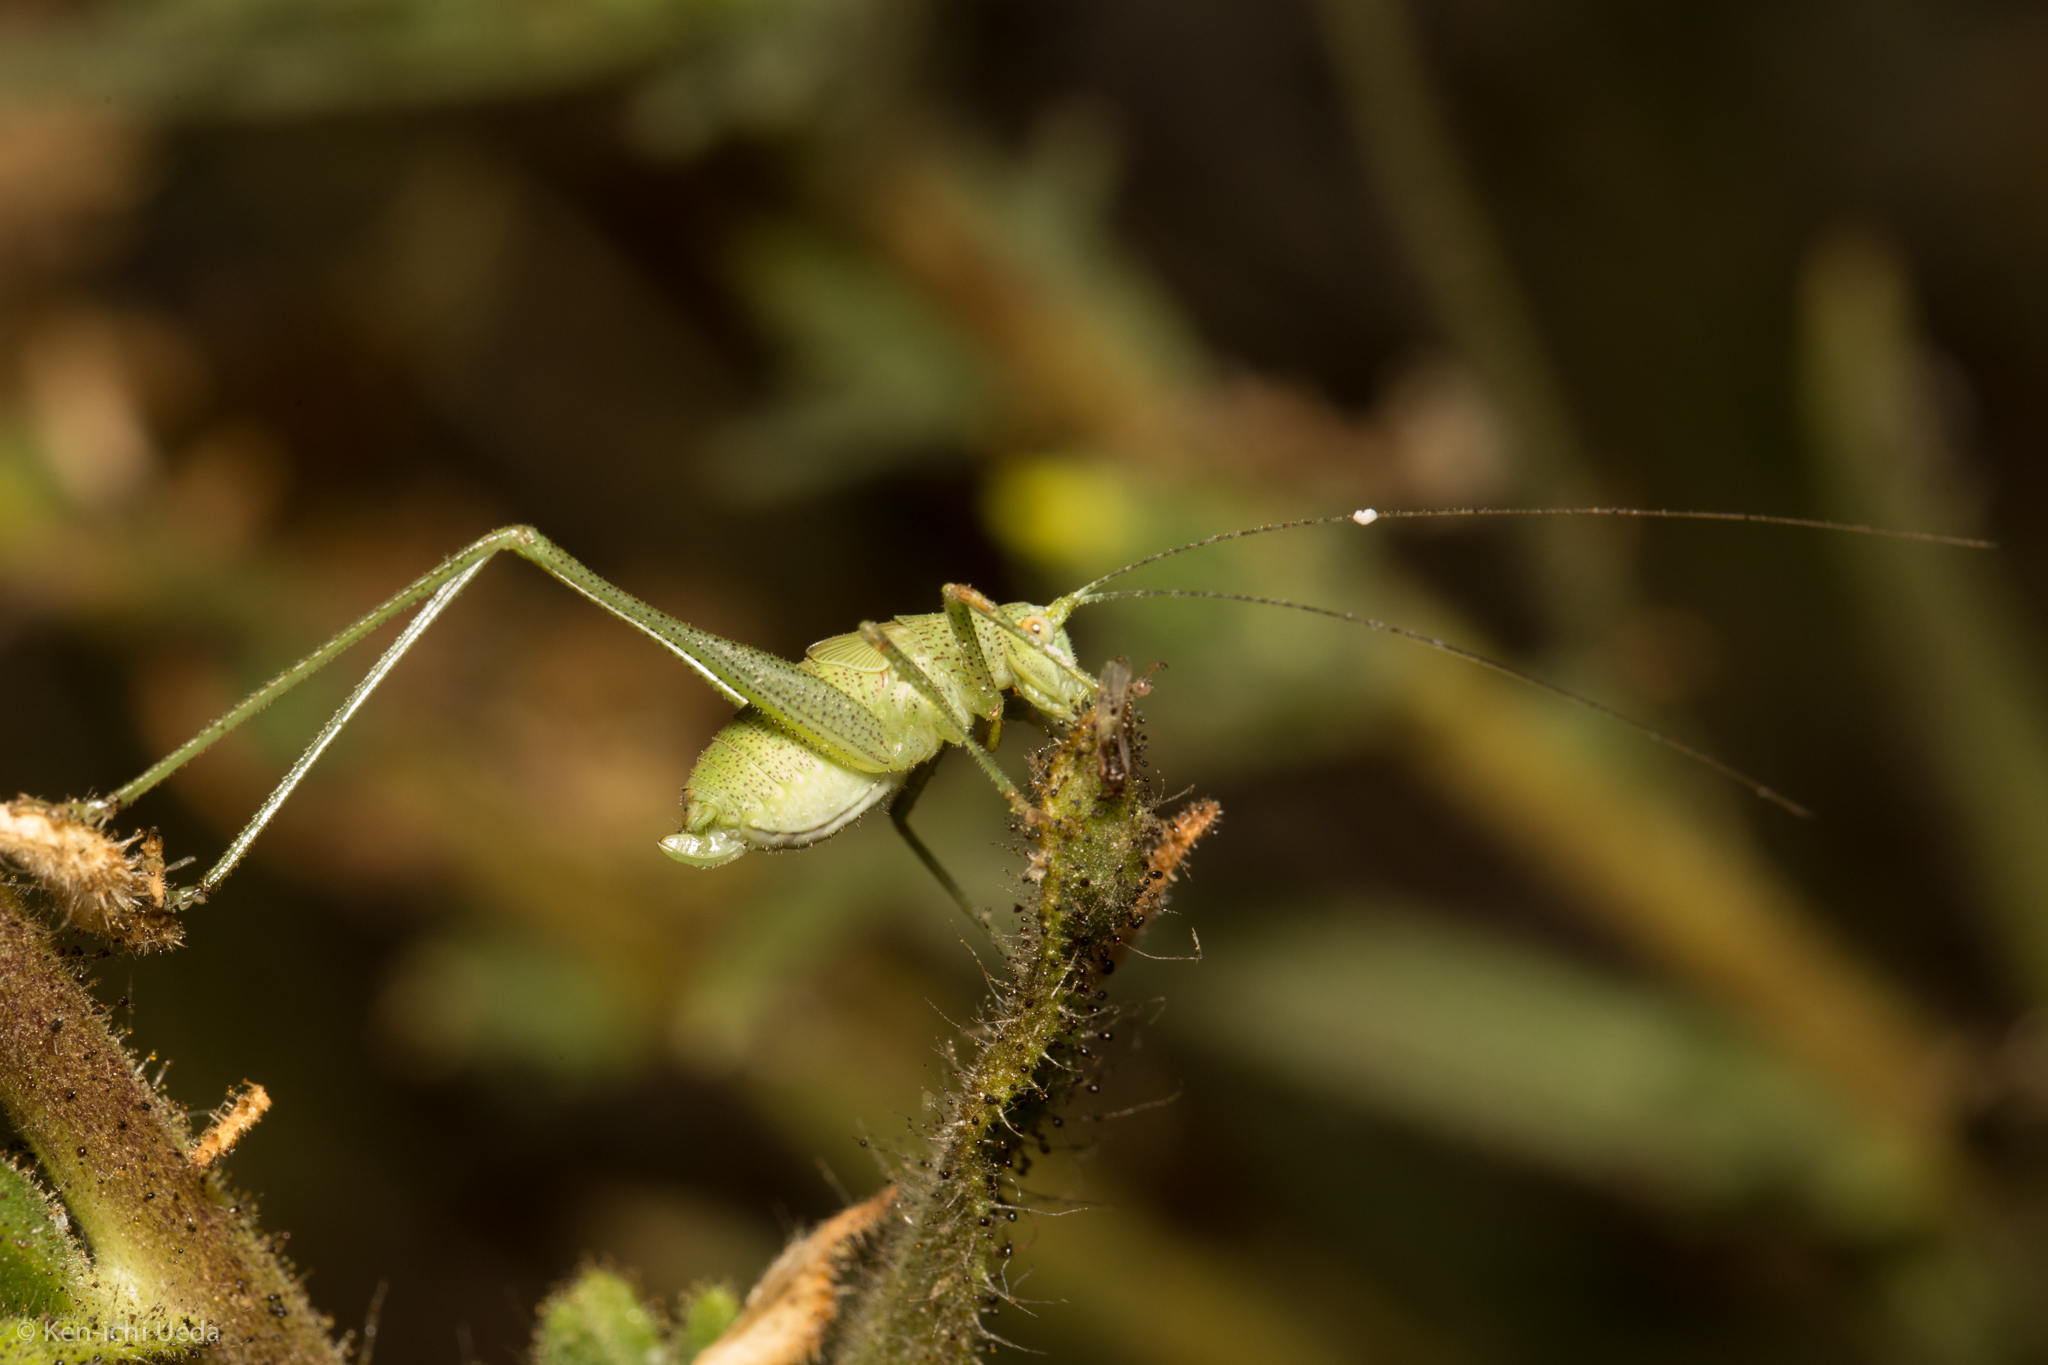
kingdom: Animalia
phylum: Arthropoda
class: Insecta
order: Orthoptera
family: Tettigoniidae
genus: Phaneroptera
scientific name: Phaneroptera nana
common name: Southern sickle bush-cricket
